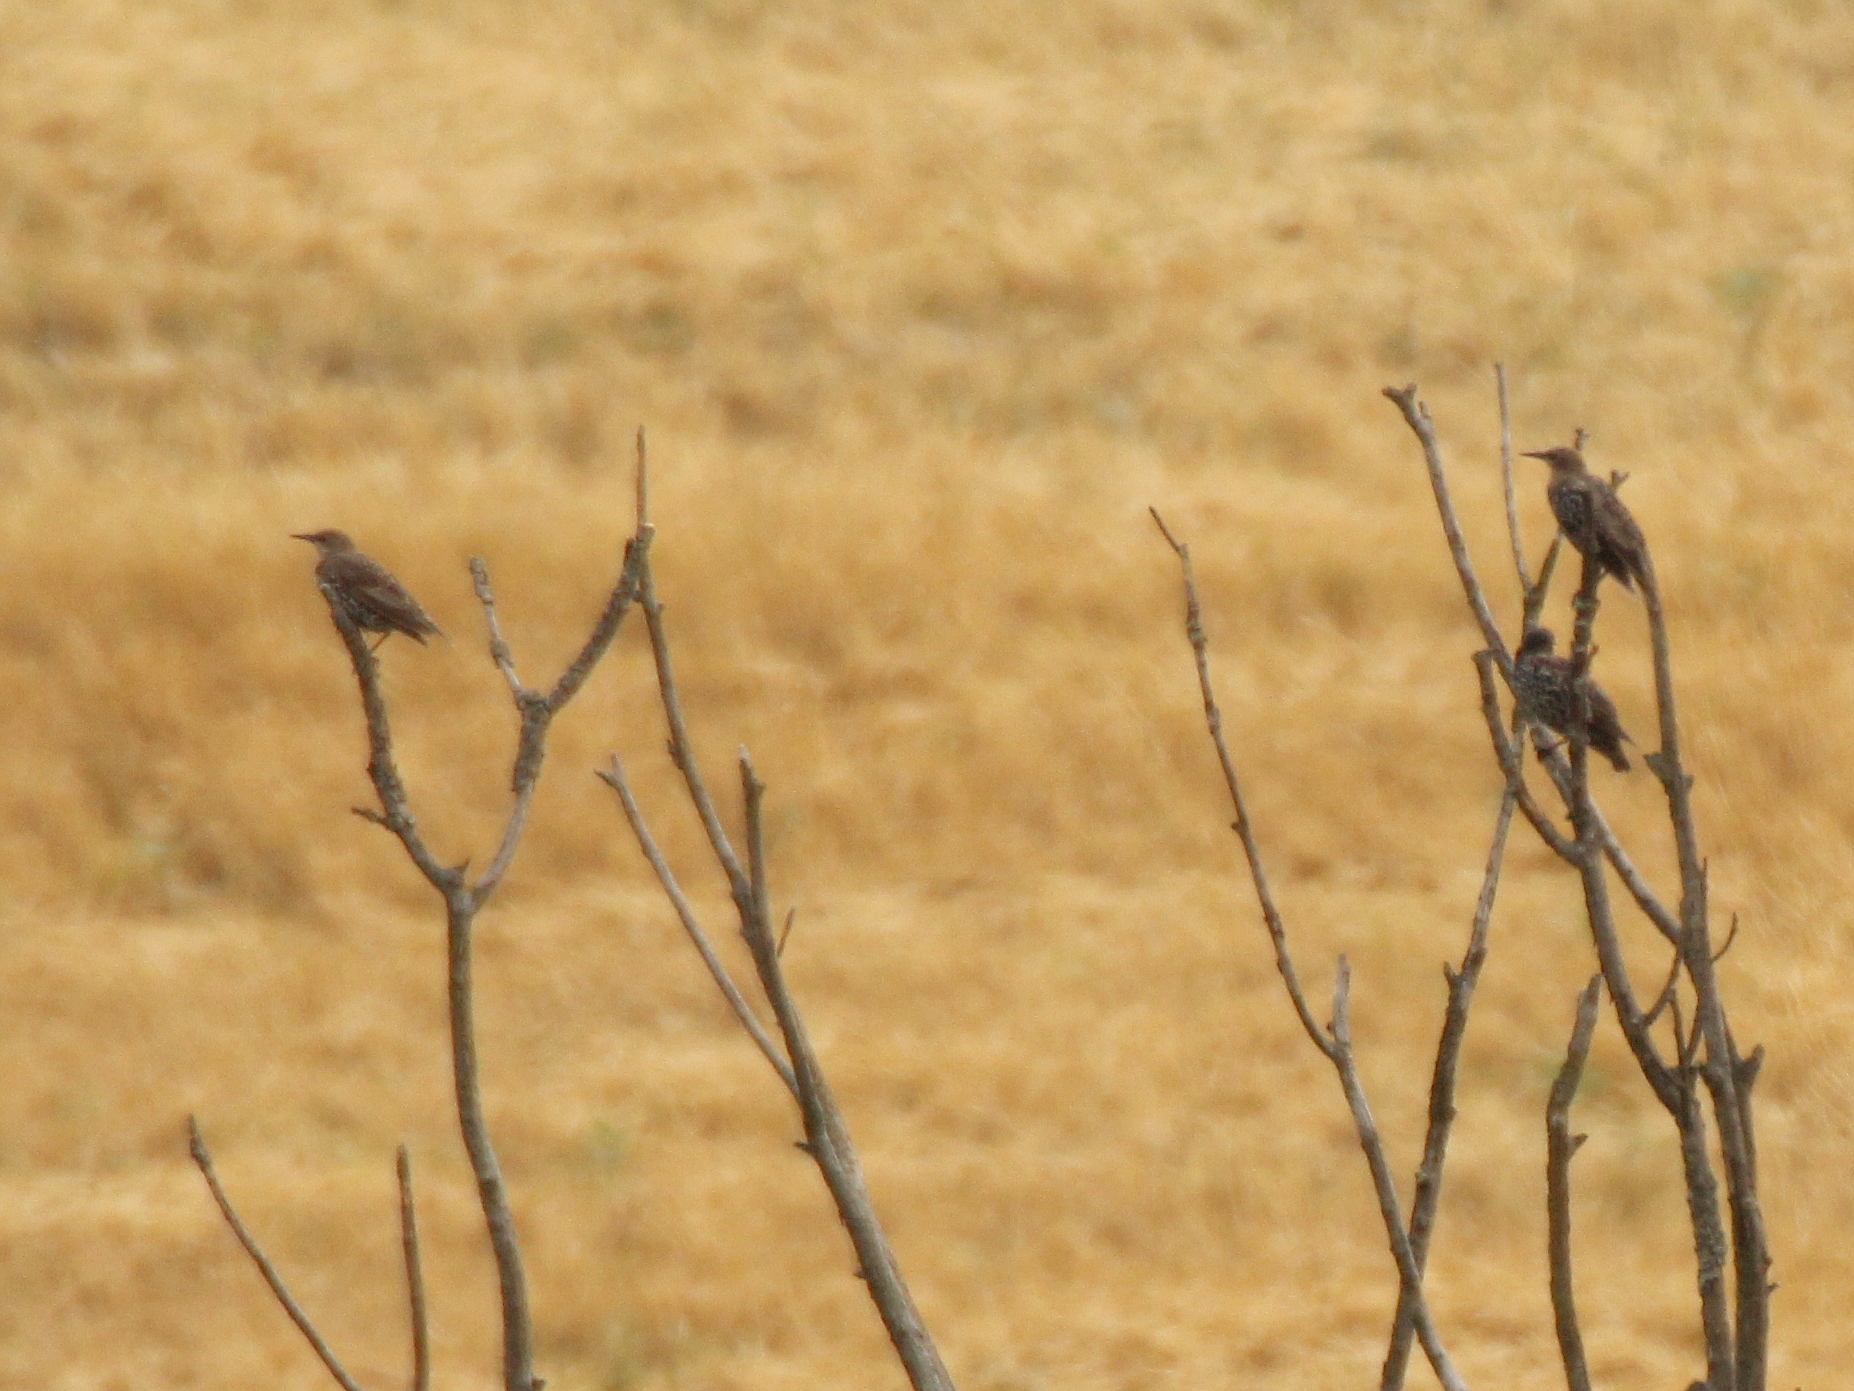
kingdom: Animalia
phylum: Chordata
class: Aves
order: Passeriformes
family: Sturnidae
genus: Sturnus
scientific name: Sturnus vulgaris
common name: Common starling
